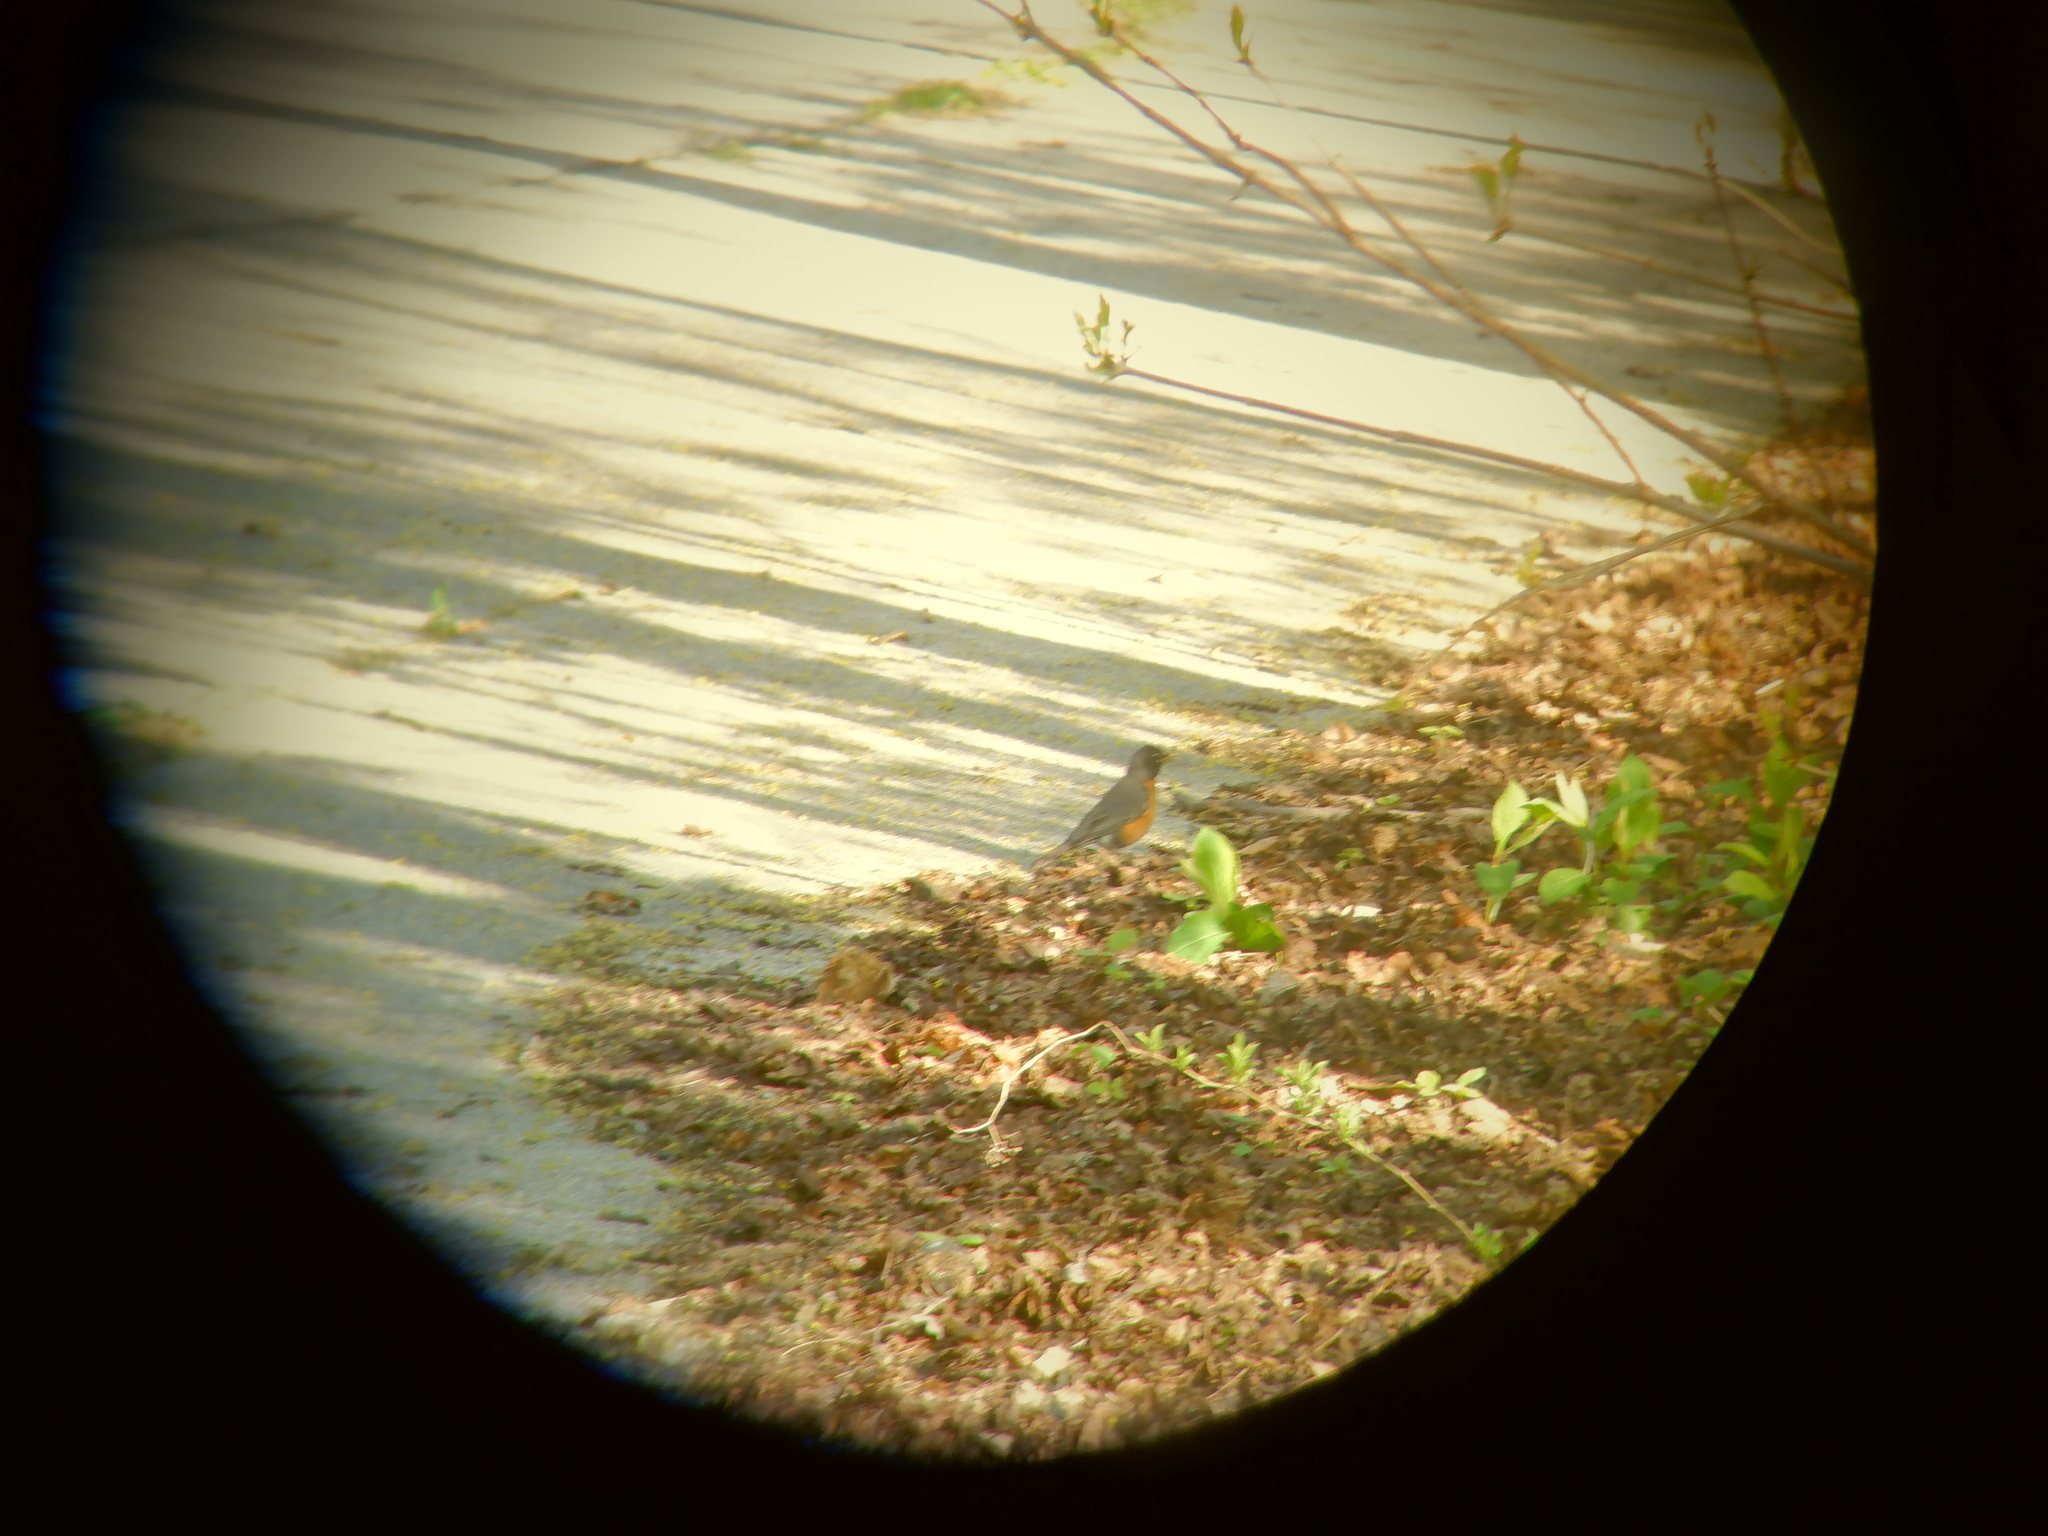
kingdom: Animalia
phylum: Chordata
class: Aves
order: Passeriformes
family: Turdidae
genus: Turdus
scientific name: Turdus migratorius
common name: American robin
